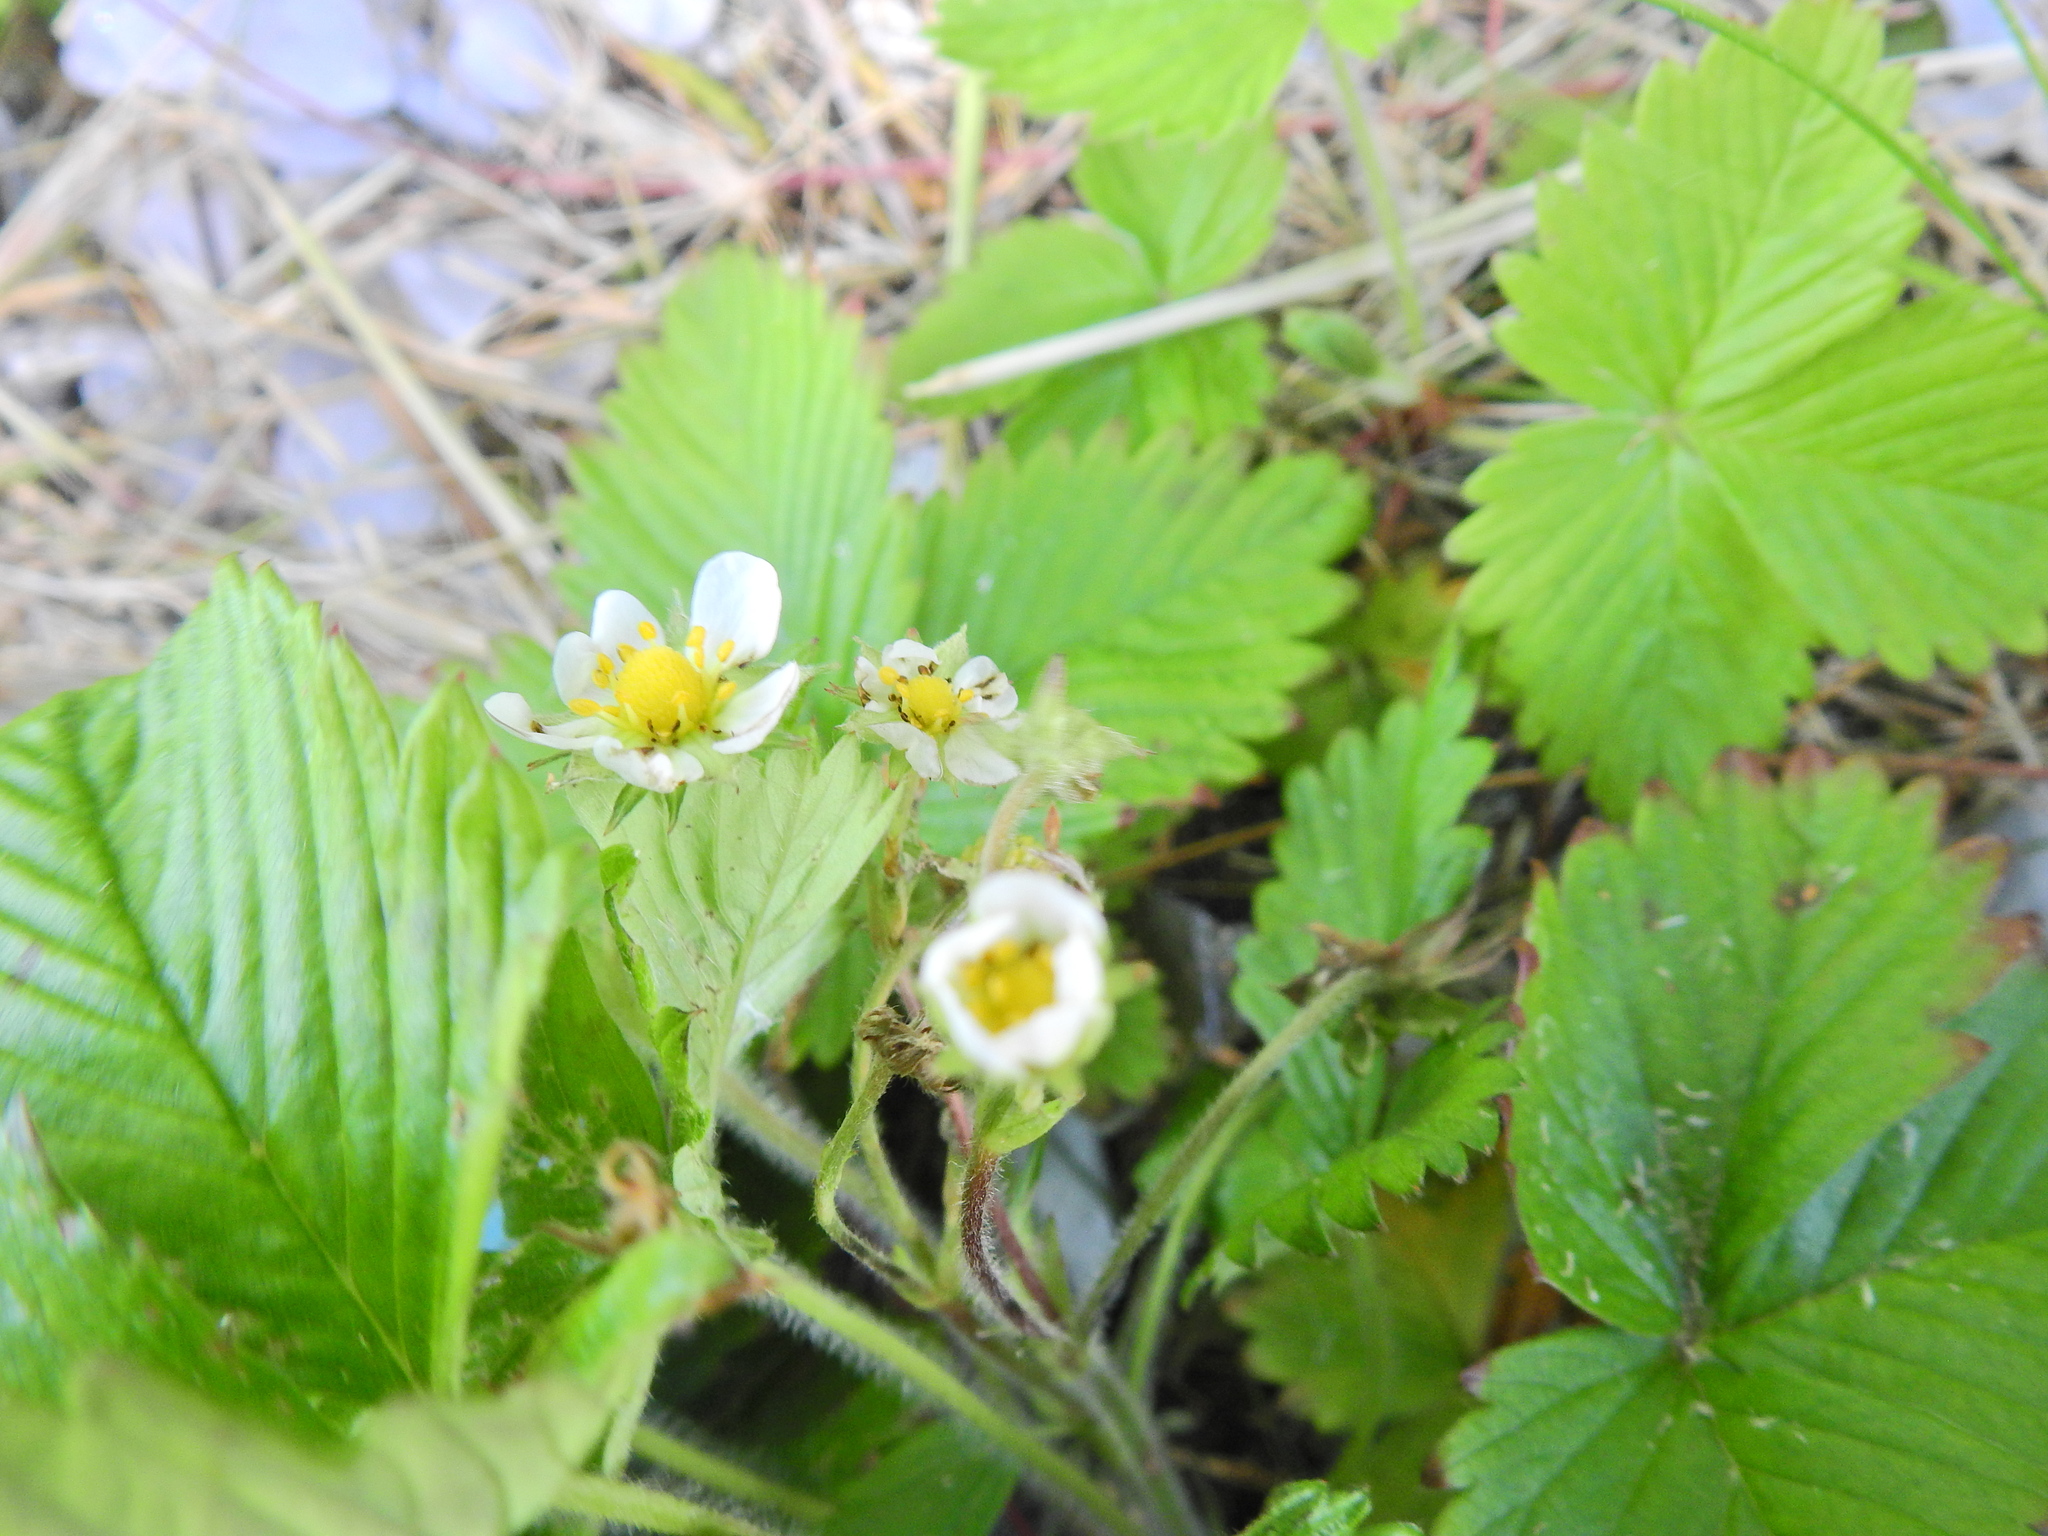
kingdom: Plantae
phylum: Tracheophyta
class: Magnoliopsida
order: Rosales
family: Rosaceae
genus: Fragaria
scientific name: Fragaria vesca
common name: Wild strawberry
